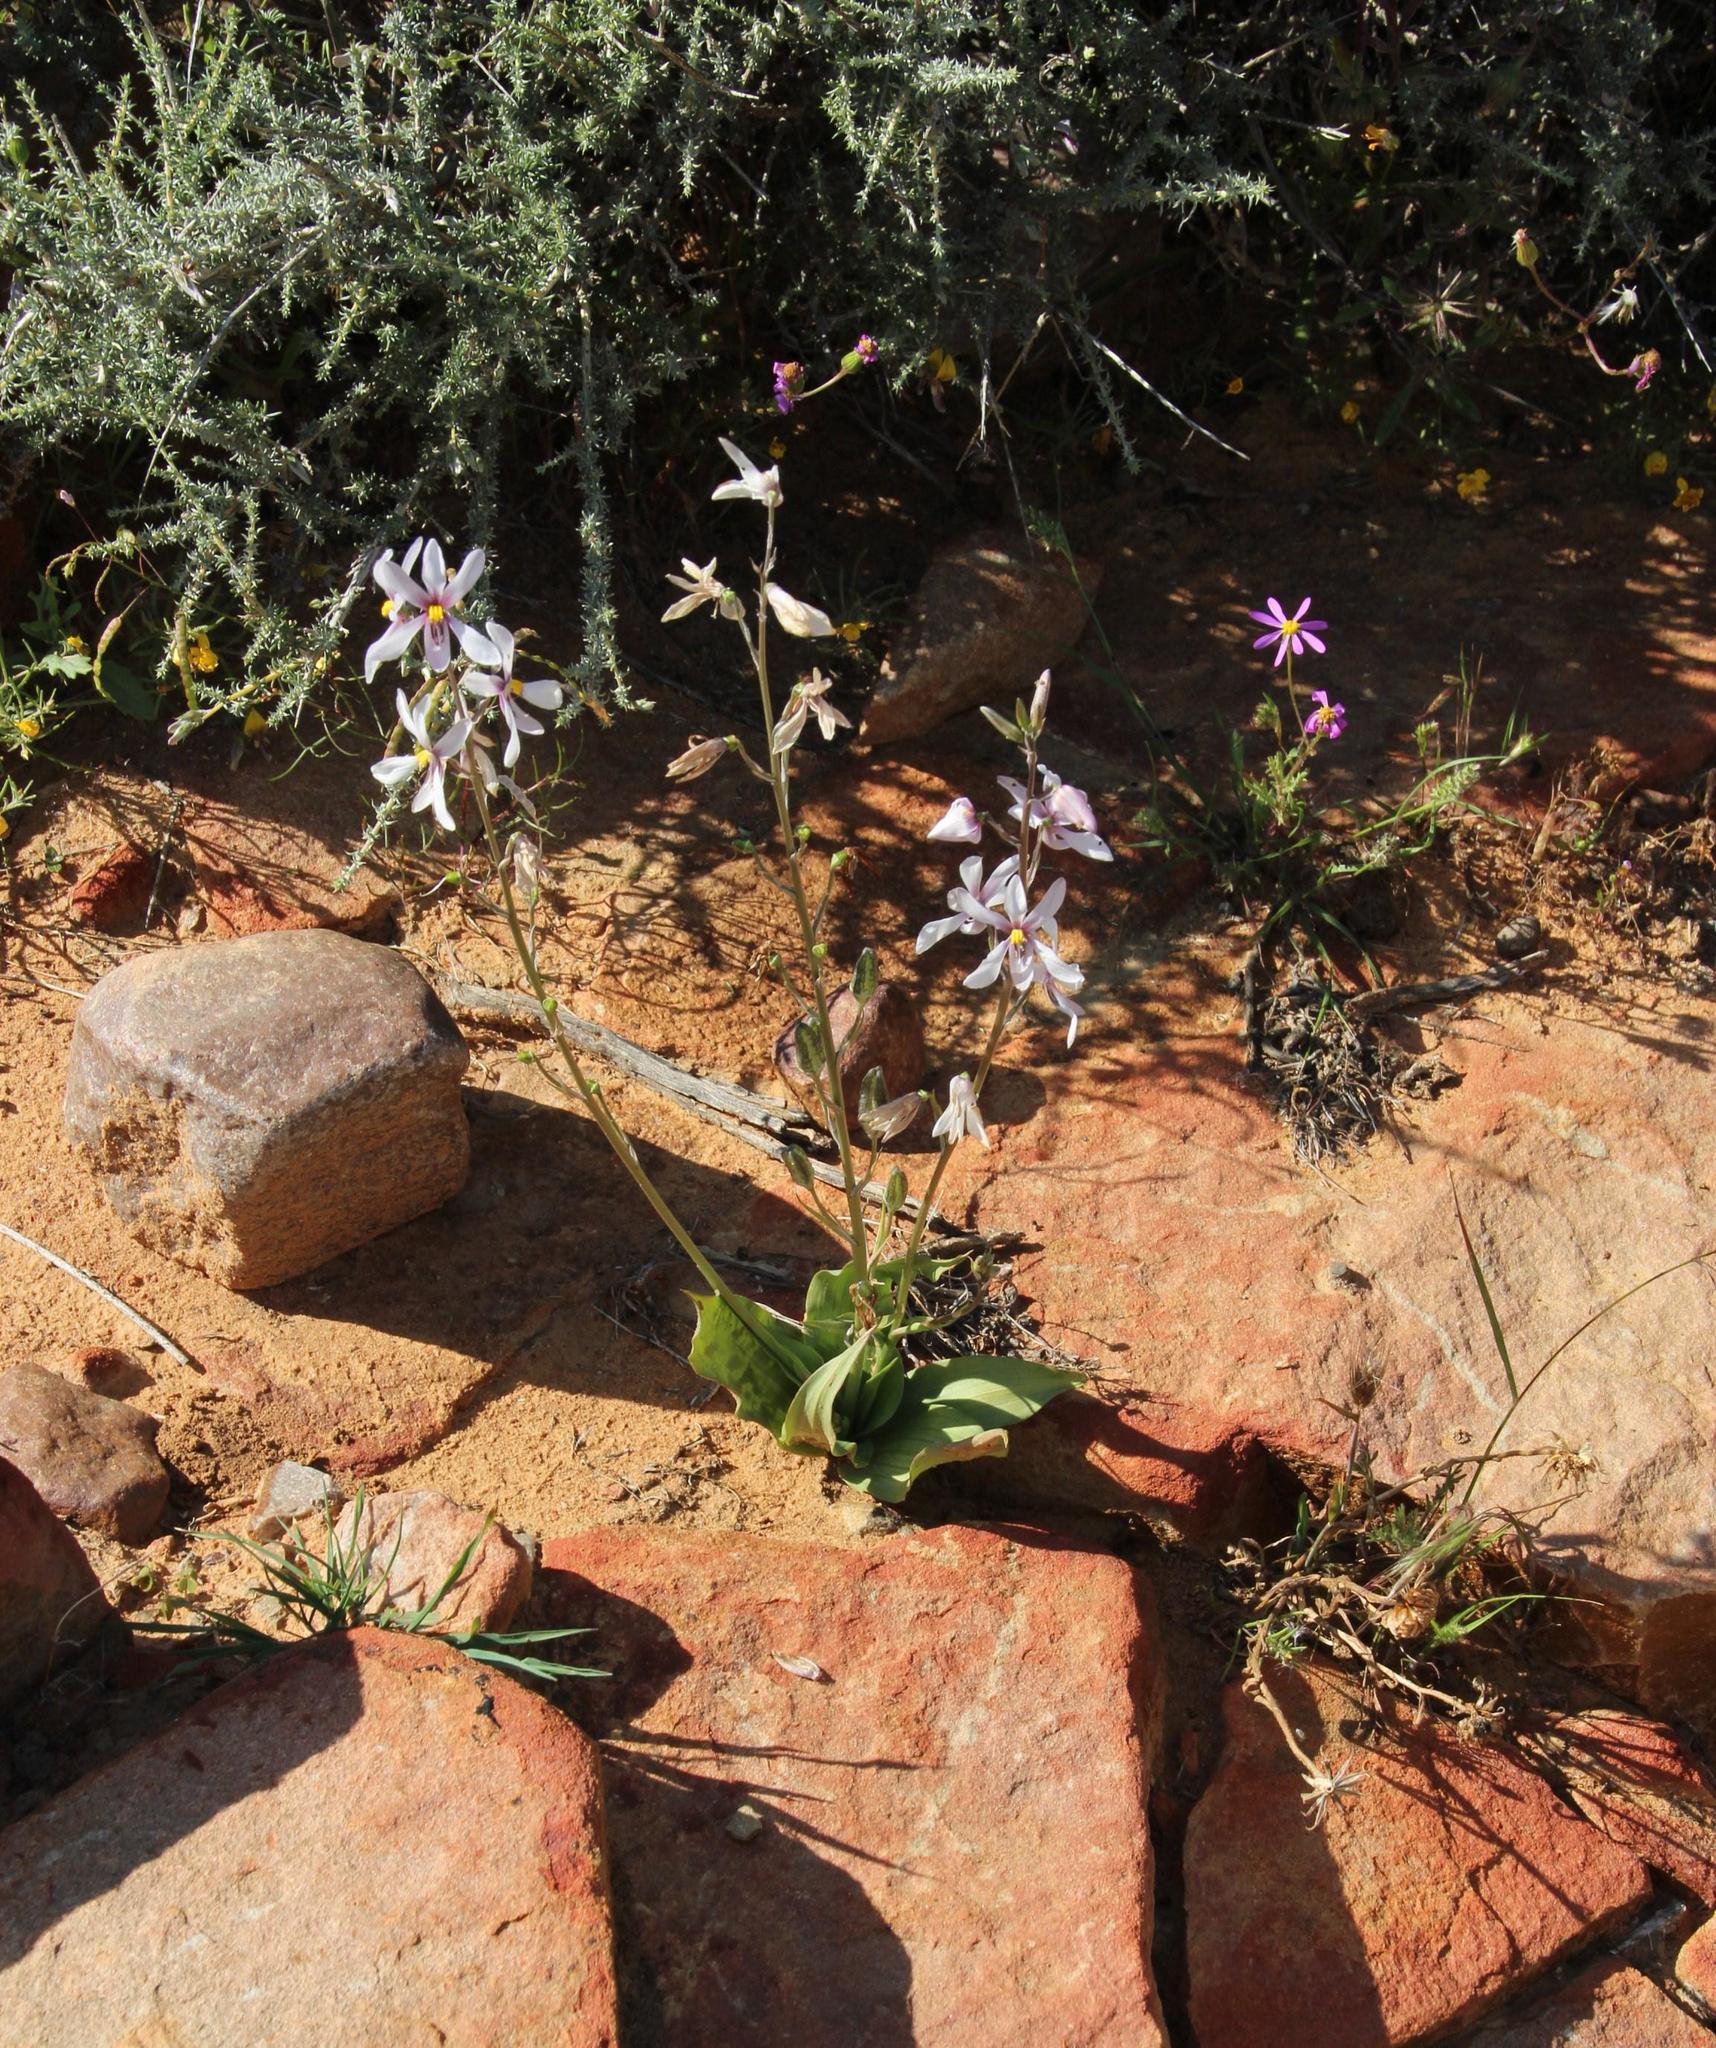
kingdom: Plantae
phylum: Tracheophyta
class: Liliopsida
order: Asparagales
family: Tecophilaeaceae
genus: Cyanella
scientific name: Cyanella orchidiformis
